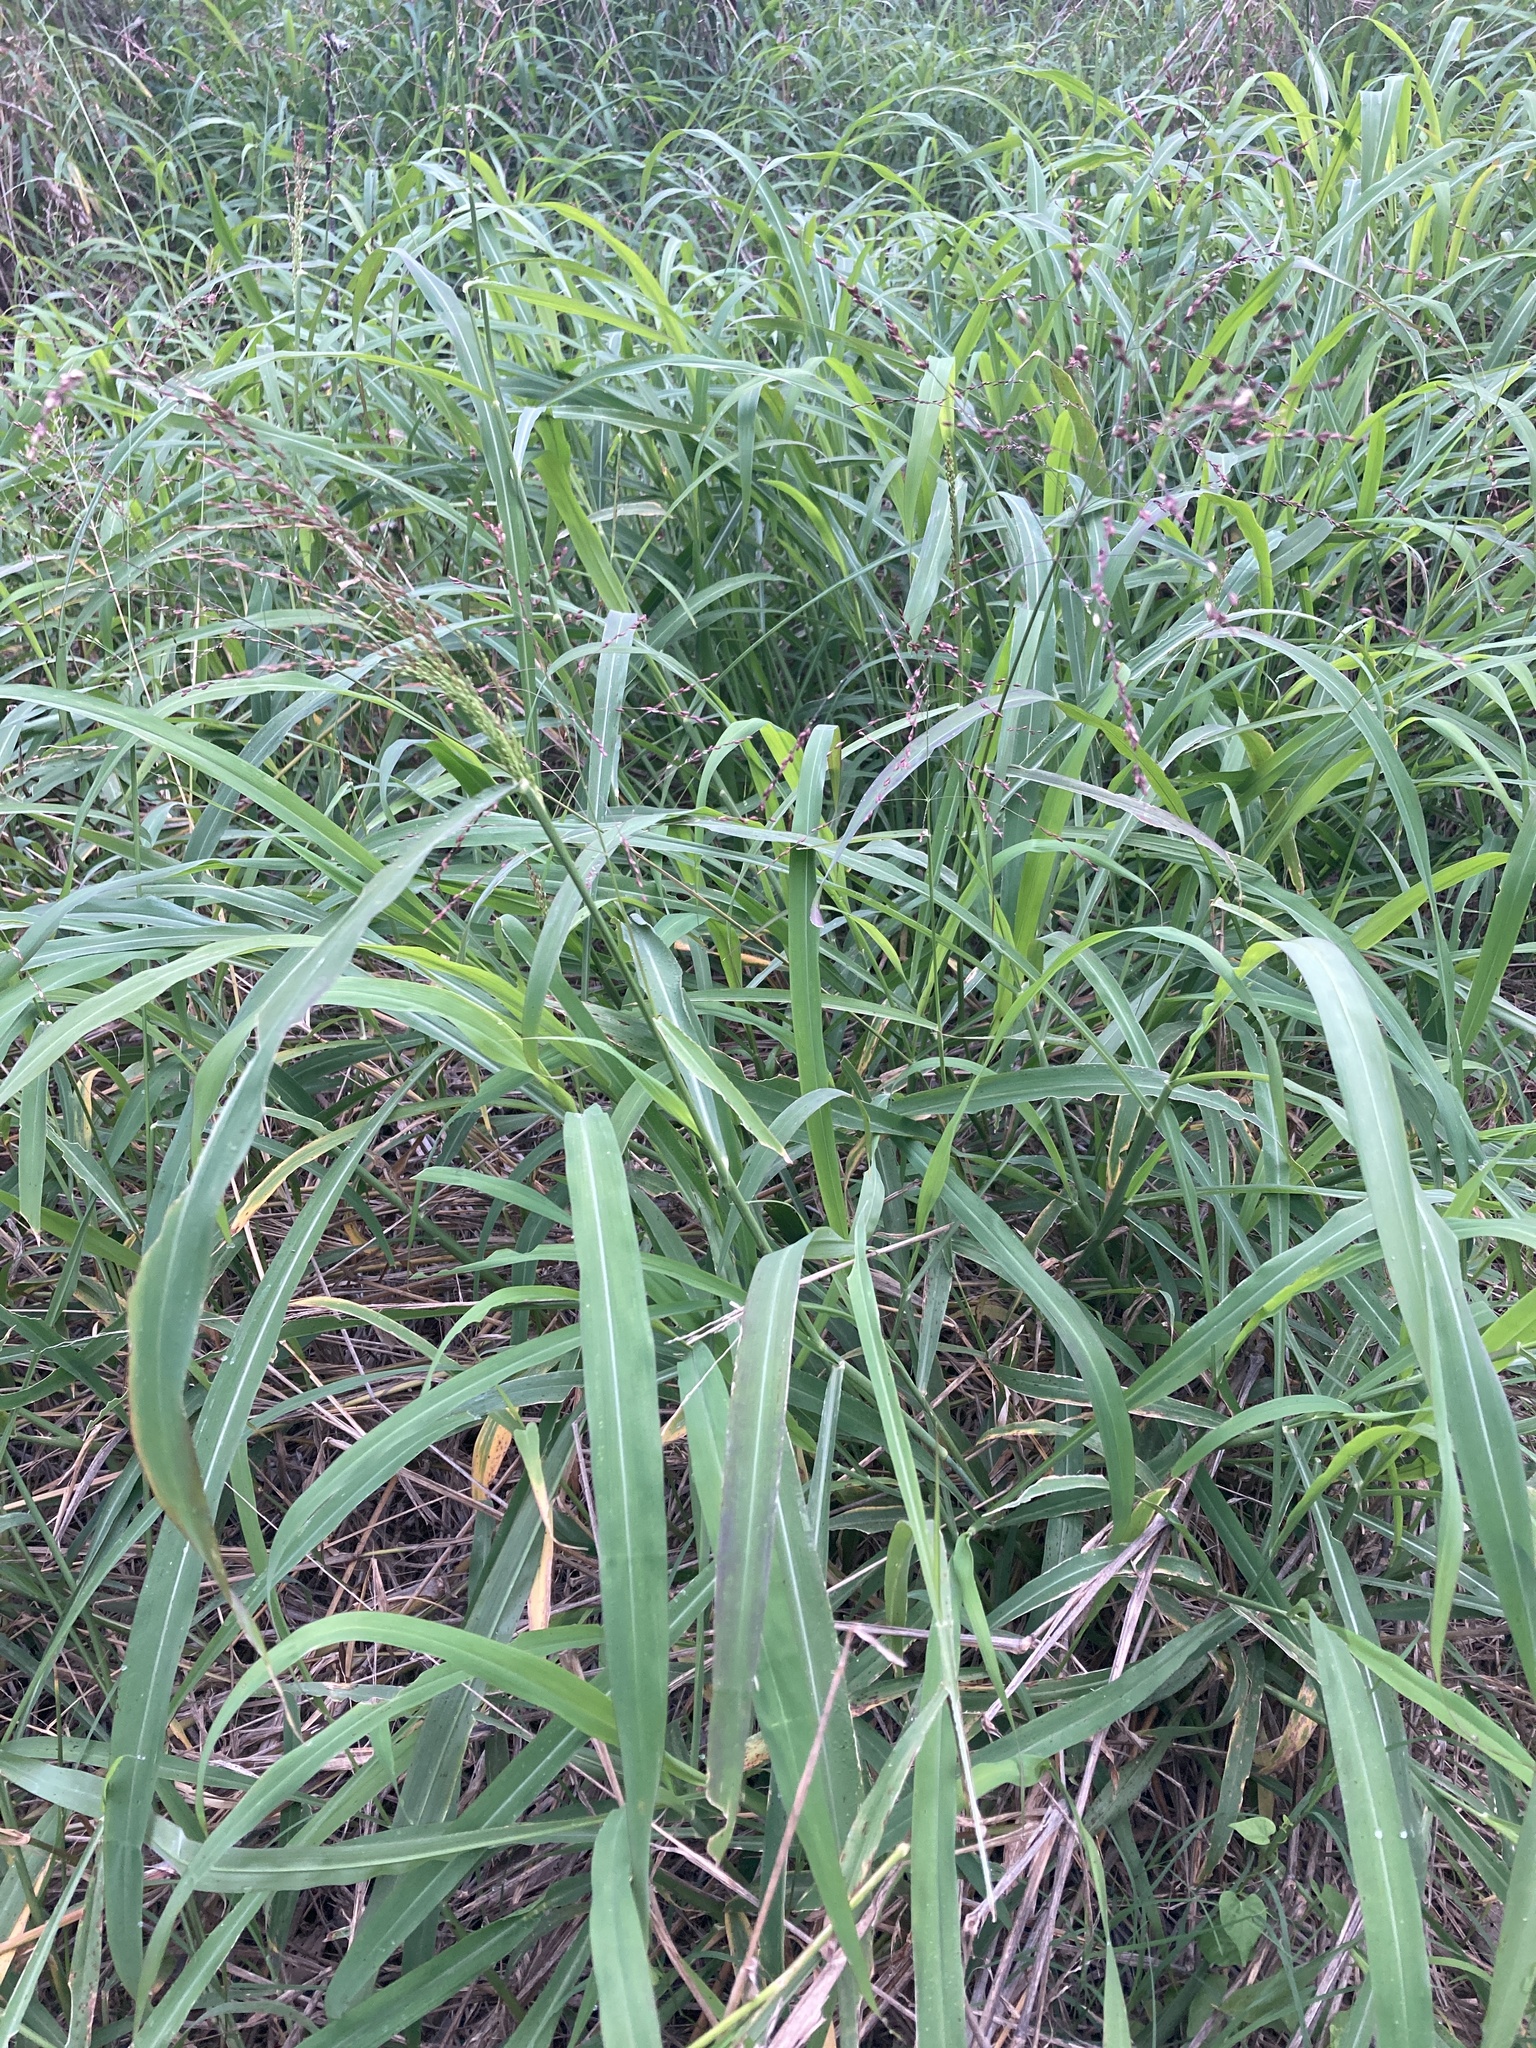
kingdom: Plantae
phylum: Tracheophyta
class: Liliopsida
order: Poales
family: Poaceae
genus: Megathyrsus
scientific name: Megathyrsus maximus
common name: Guineagrass
